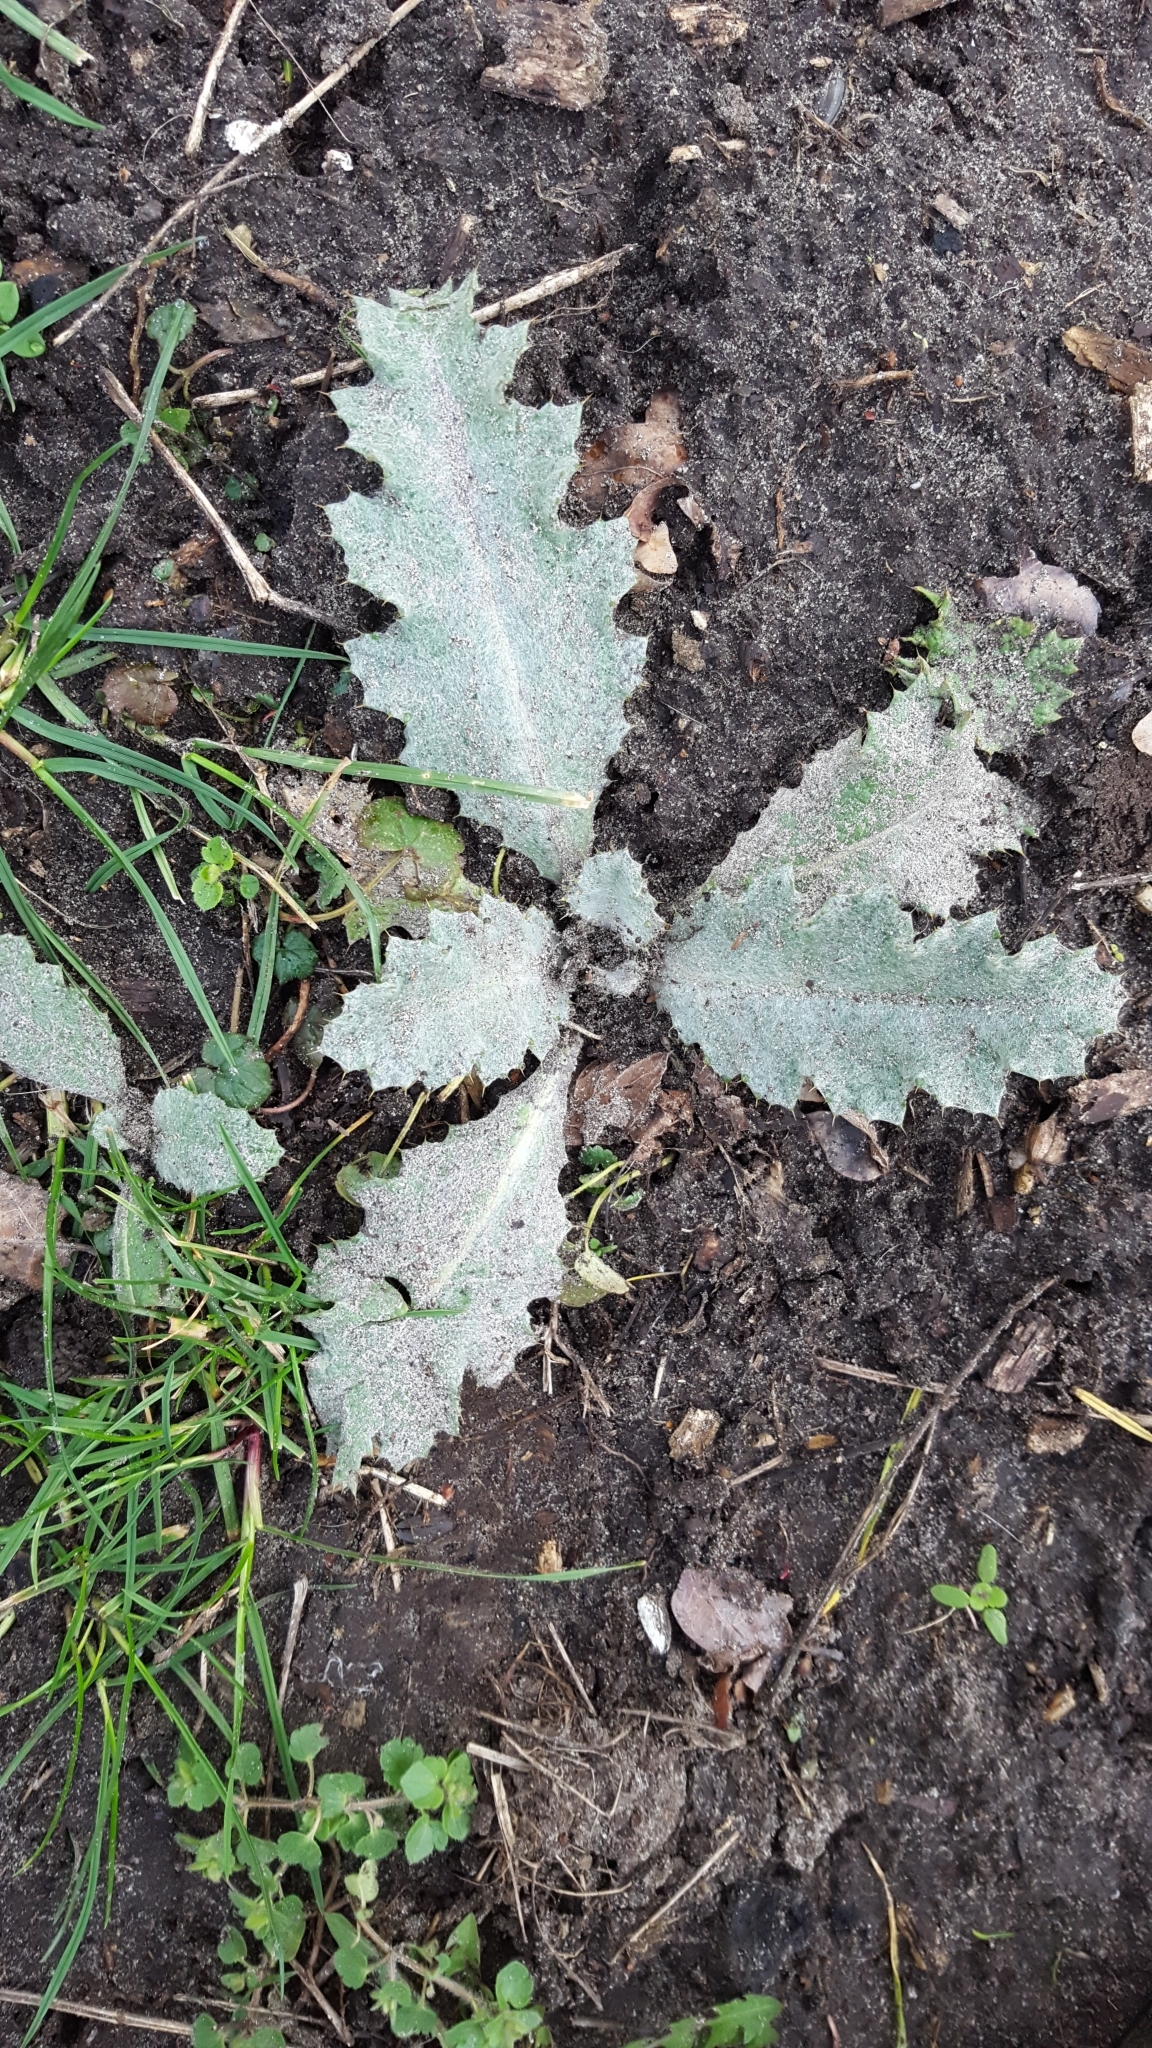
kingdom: Plantae
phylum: Tracheophyta
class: Magnoliopsida
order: Asterales
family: Asteraceae
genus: Onopordum
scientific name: Onopordum acanthium
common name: Scotch thistle
